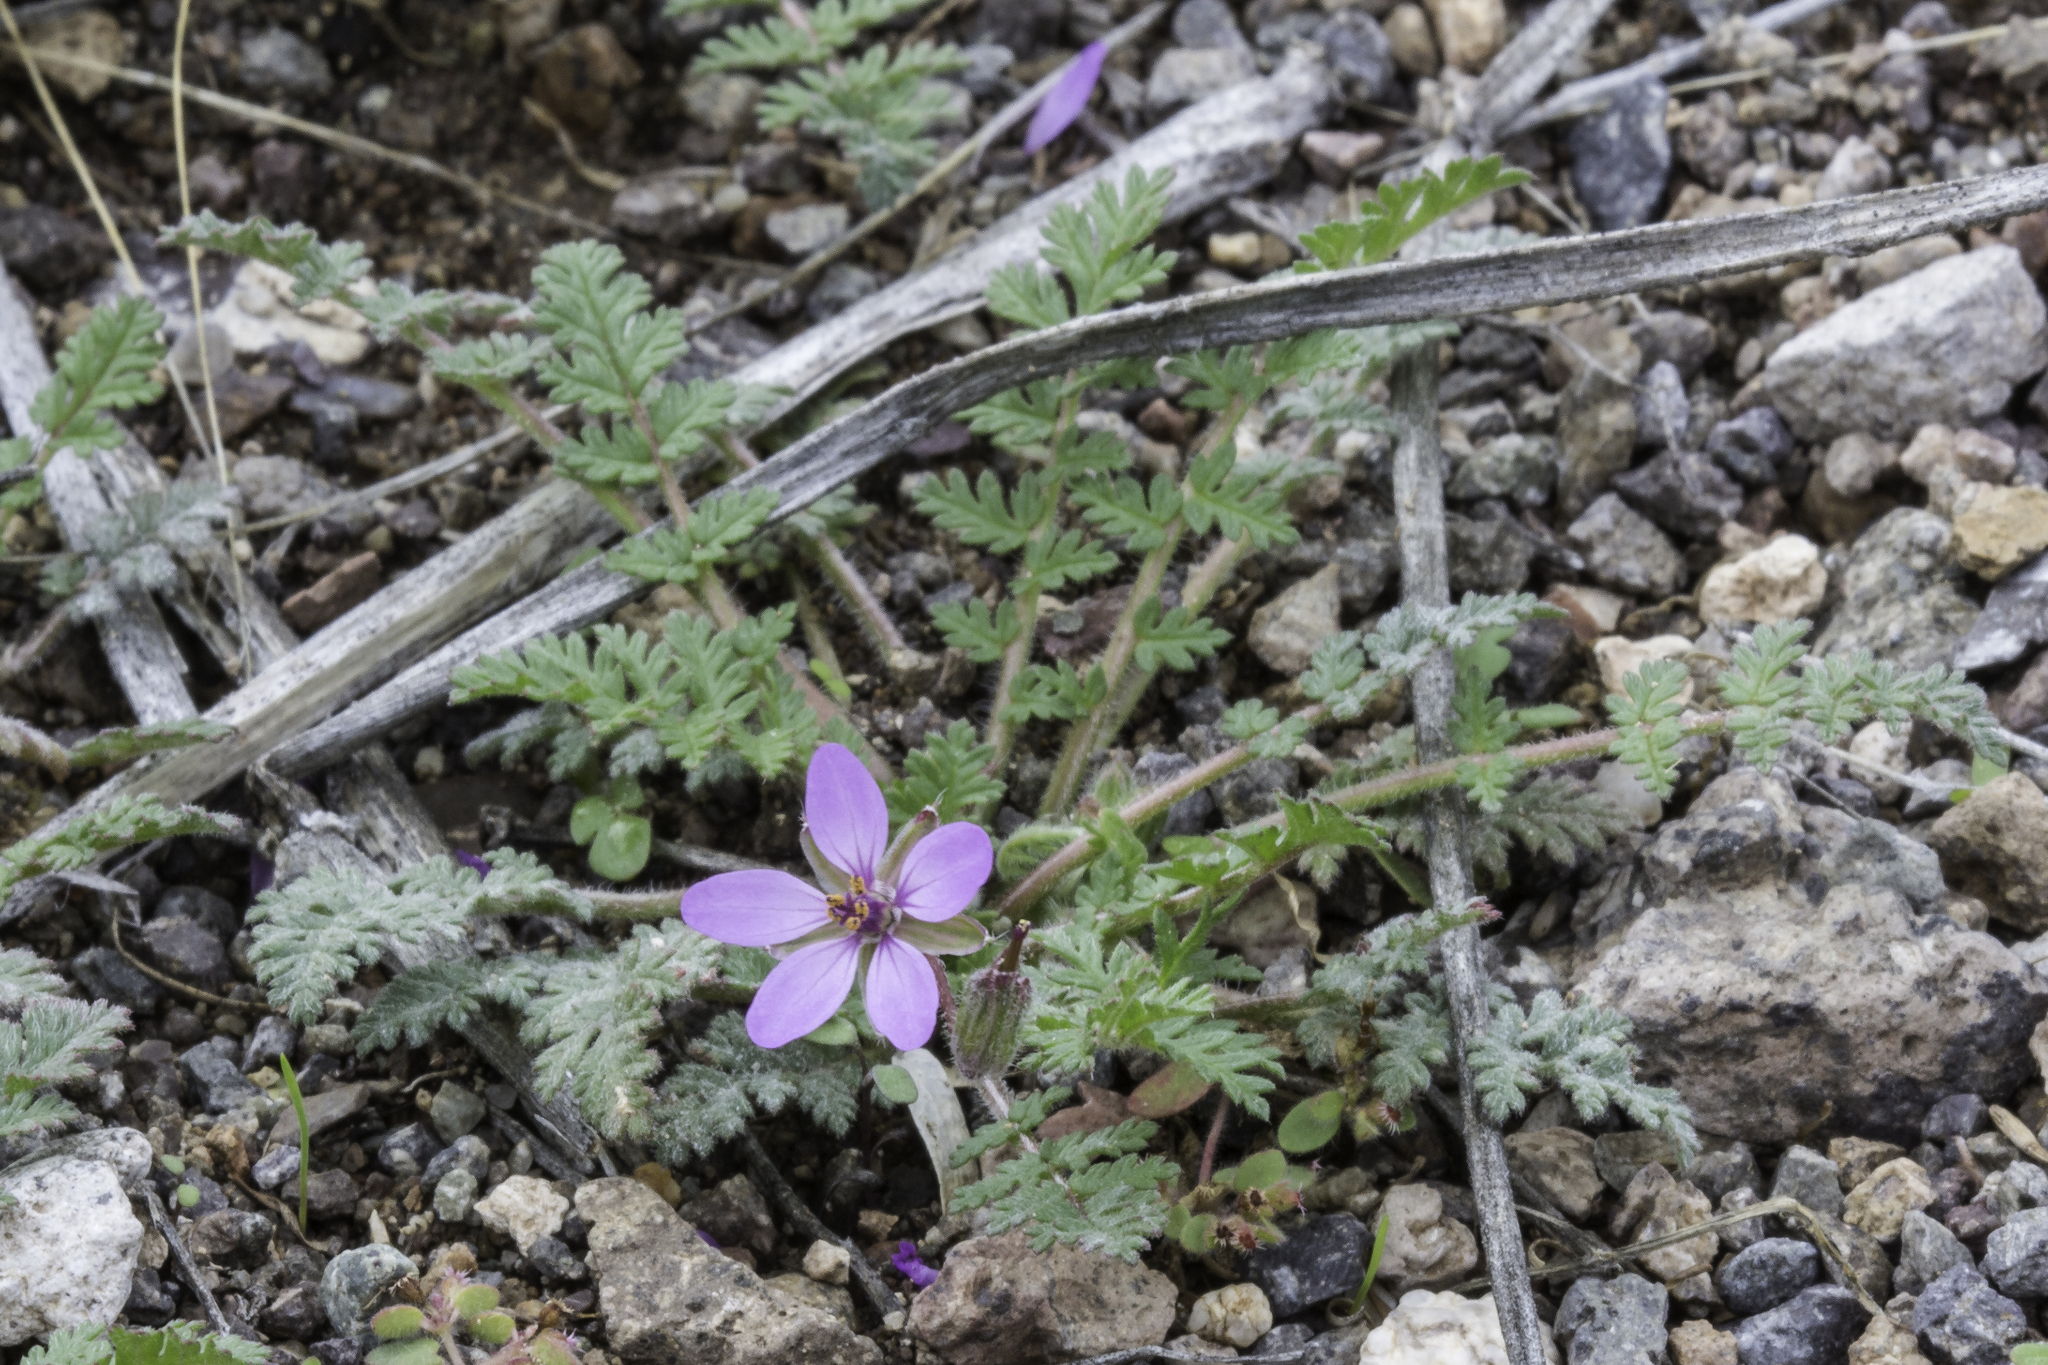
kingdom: Plantae
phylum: Tracheophyta
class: Magnoliopsida
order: Geraniales
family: Geraniaceae
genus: Erodium
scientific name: Erodium cicutarium
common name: Common stork's-bill
